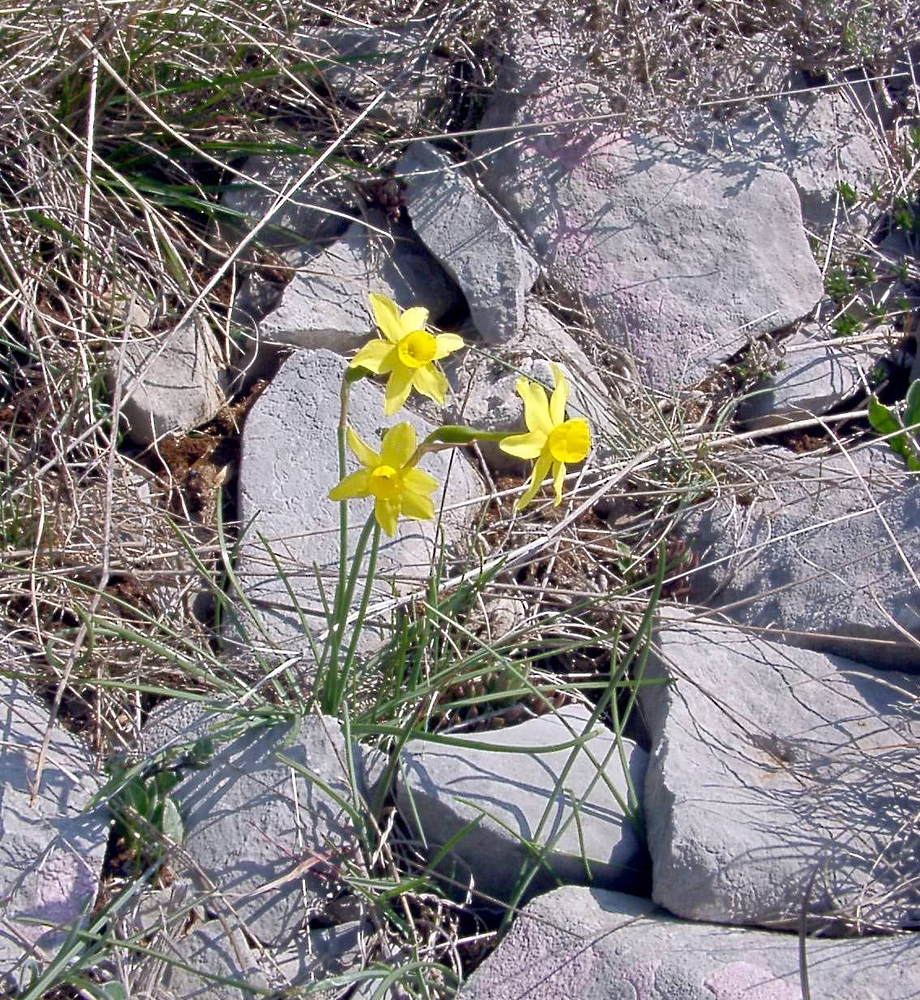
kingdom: Plantae
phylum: Tracheophyta
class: Liliopsida
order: Asparagales
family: Amaryllidaceae
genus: Narcissus
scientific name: Narcissus assoanus
